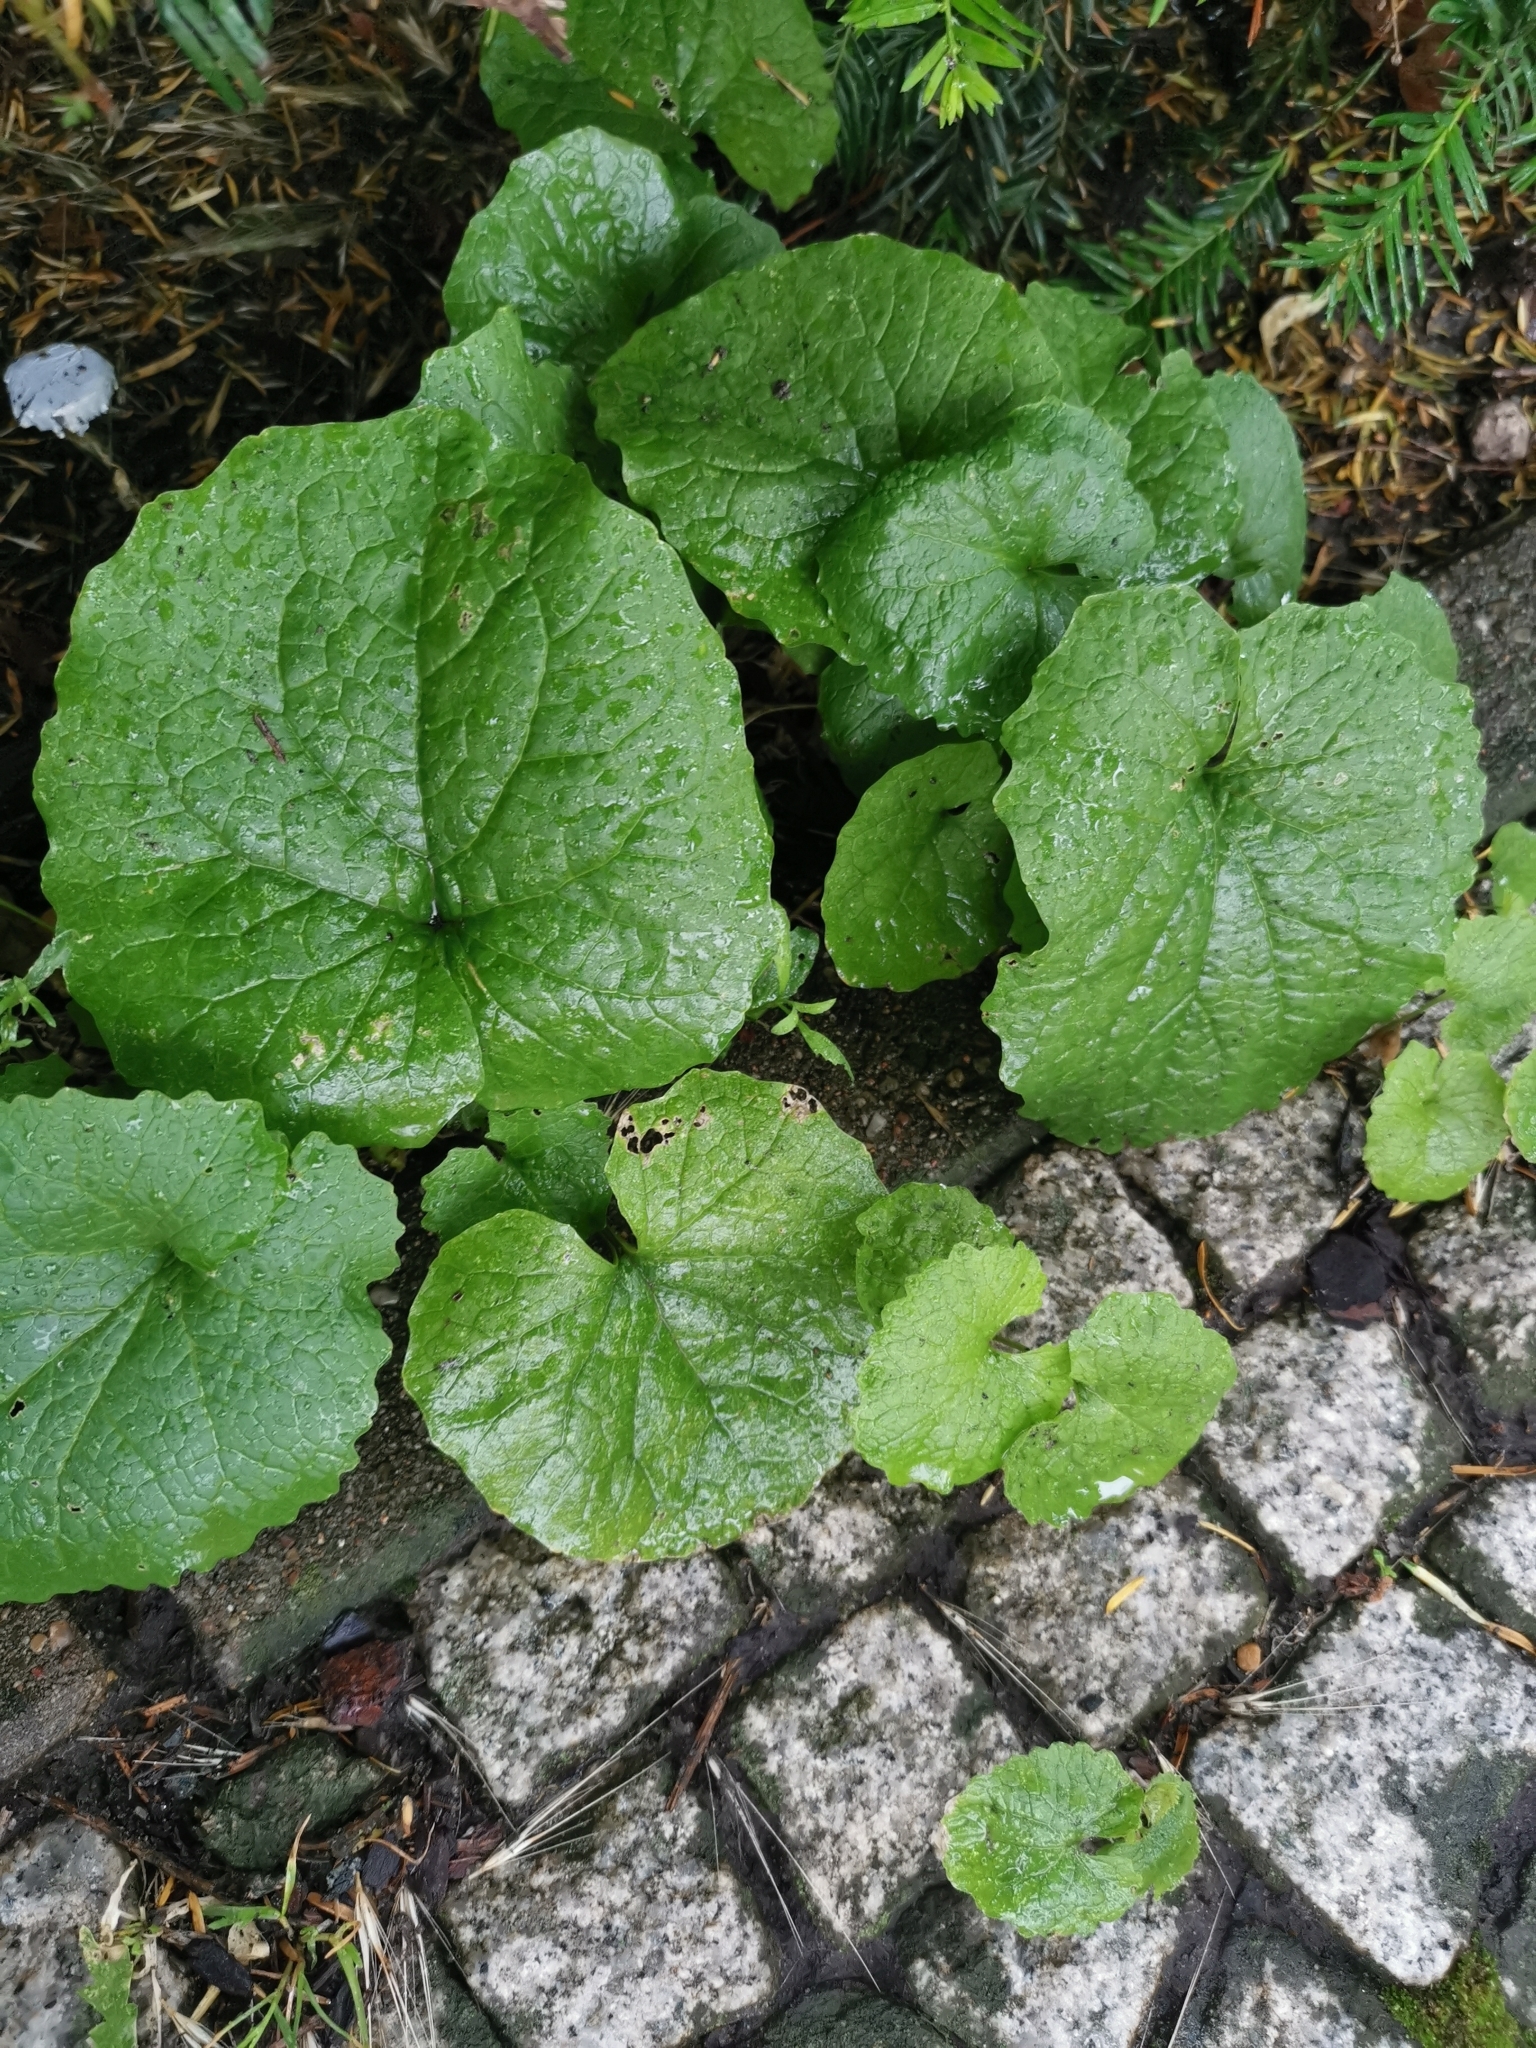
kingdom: Plantae
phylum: Tracheophyta
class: Magnoliopsida
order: Brassicales
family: Brassicaceae
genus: Alliaria
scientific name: Alliaria petiolata
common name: Garlic mustard
